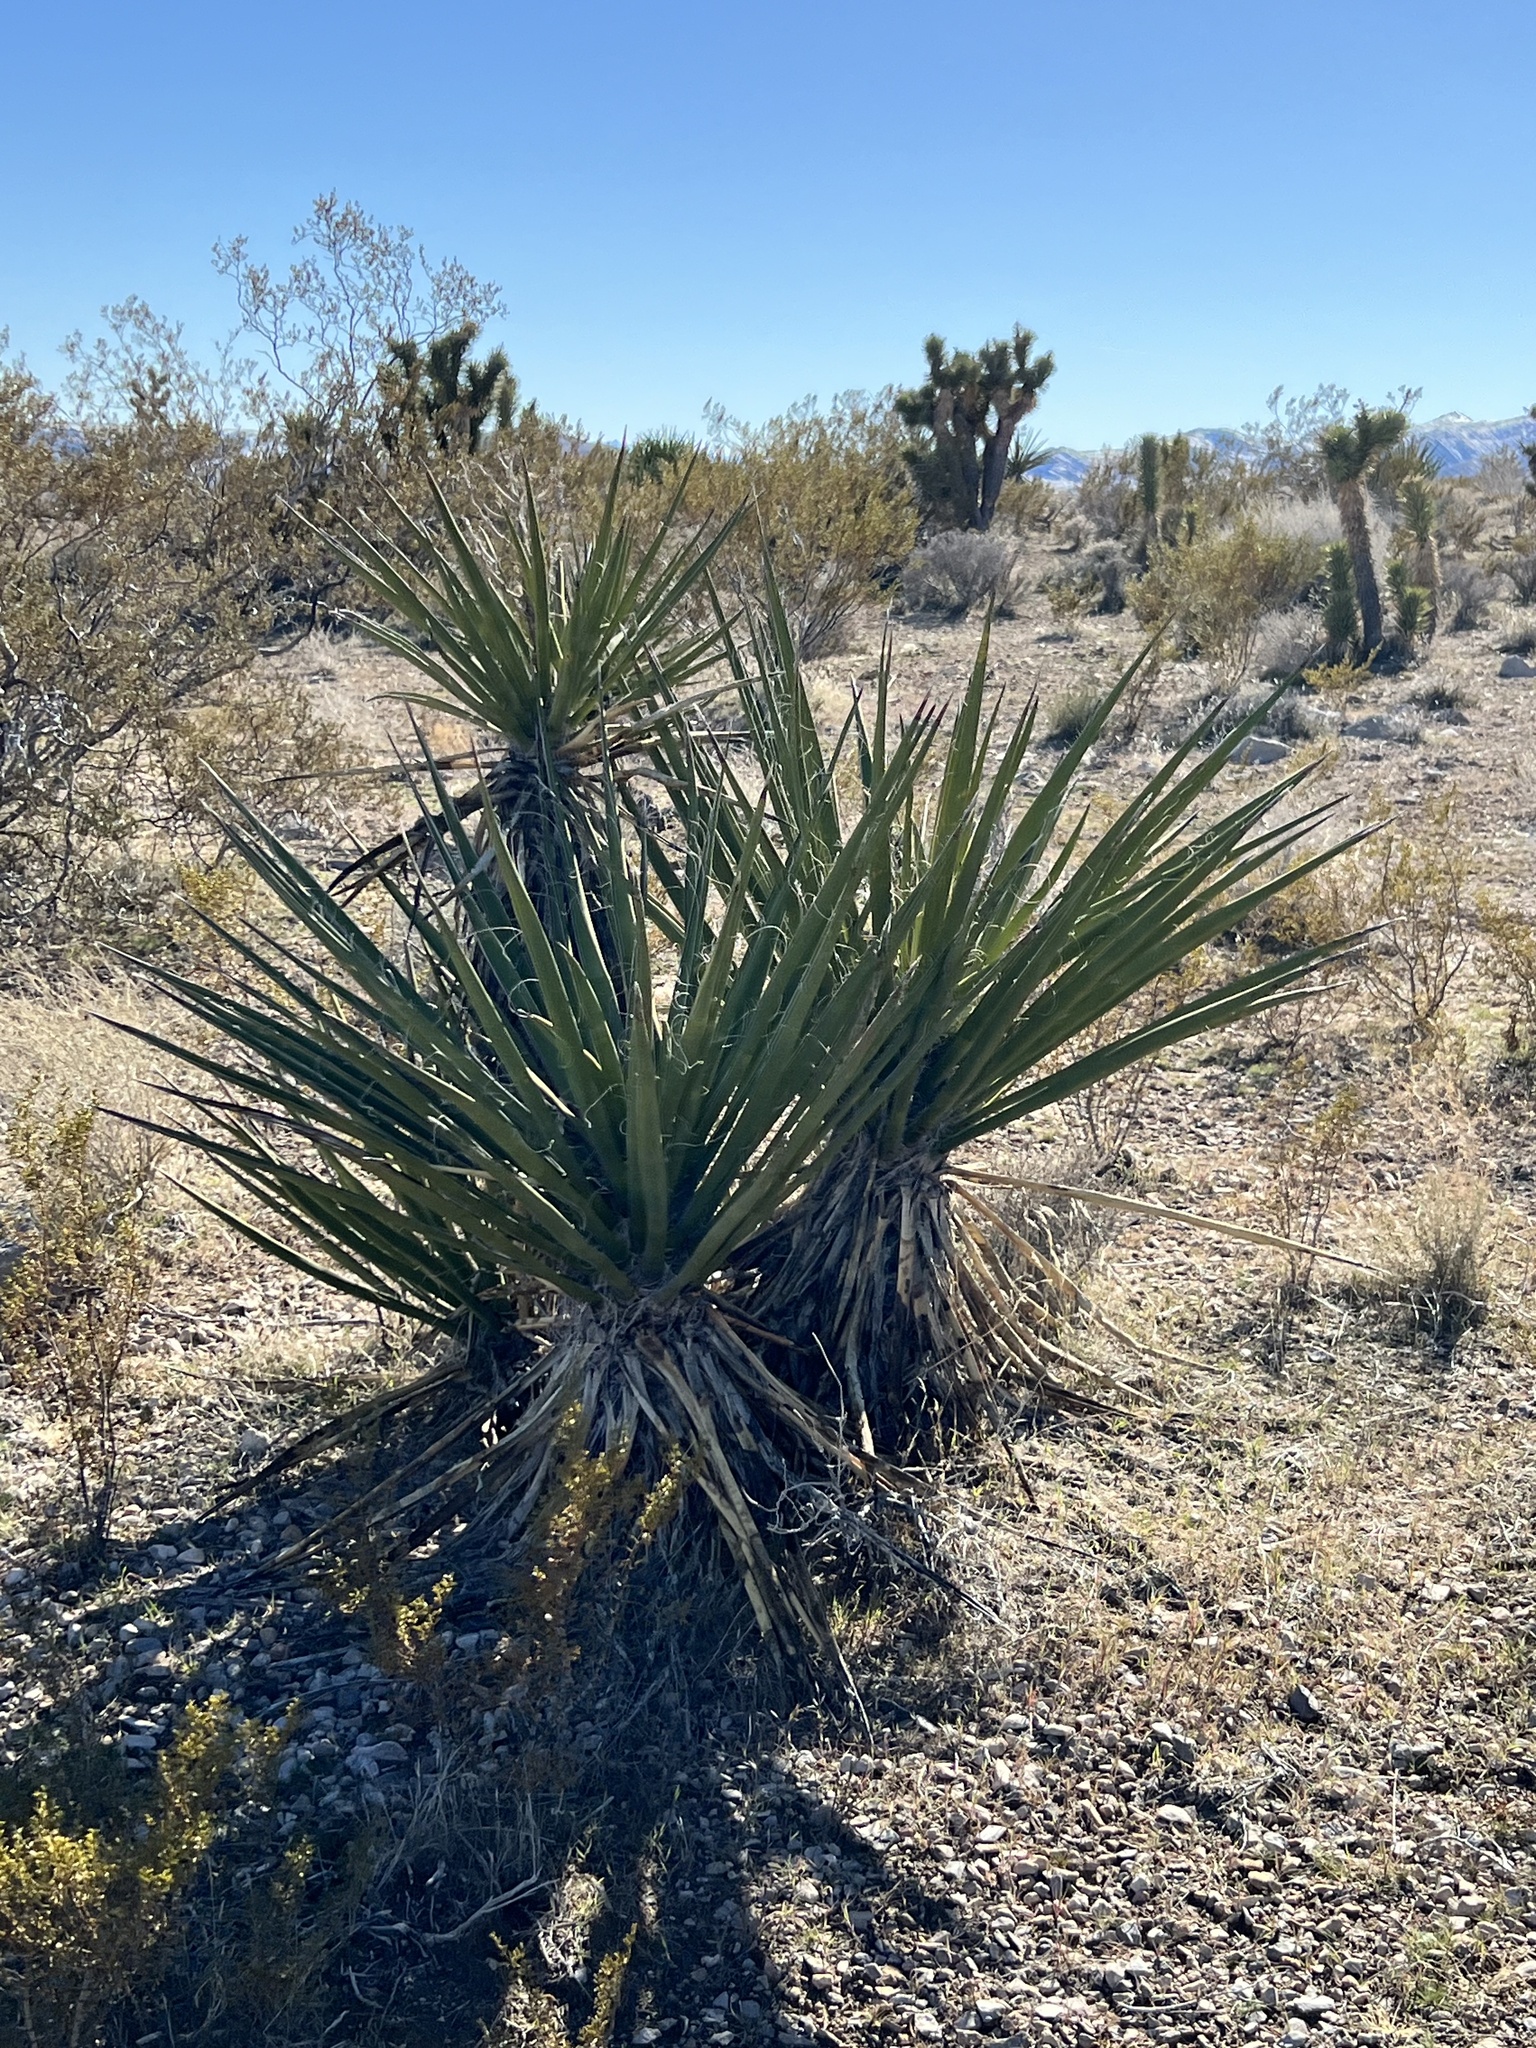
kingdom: Plantae
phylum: Tracheophyta
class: Liliopsida
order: Asparagales
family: Asparagaceae
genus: Yucca
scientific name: Yucca schidigera
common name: Mojave yucca
